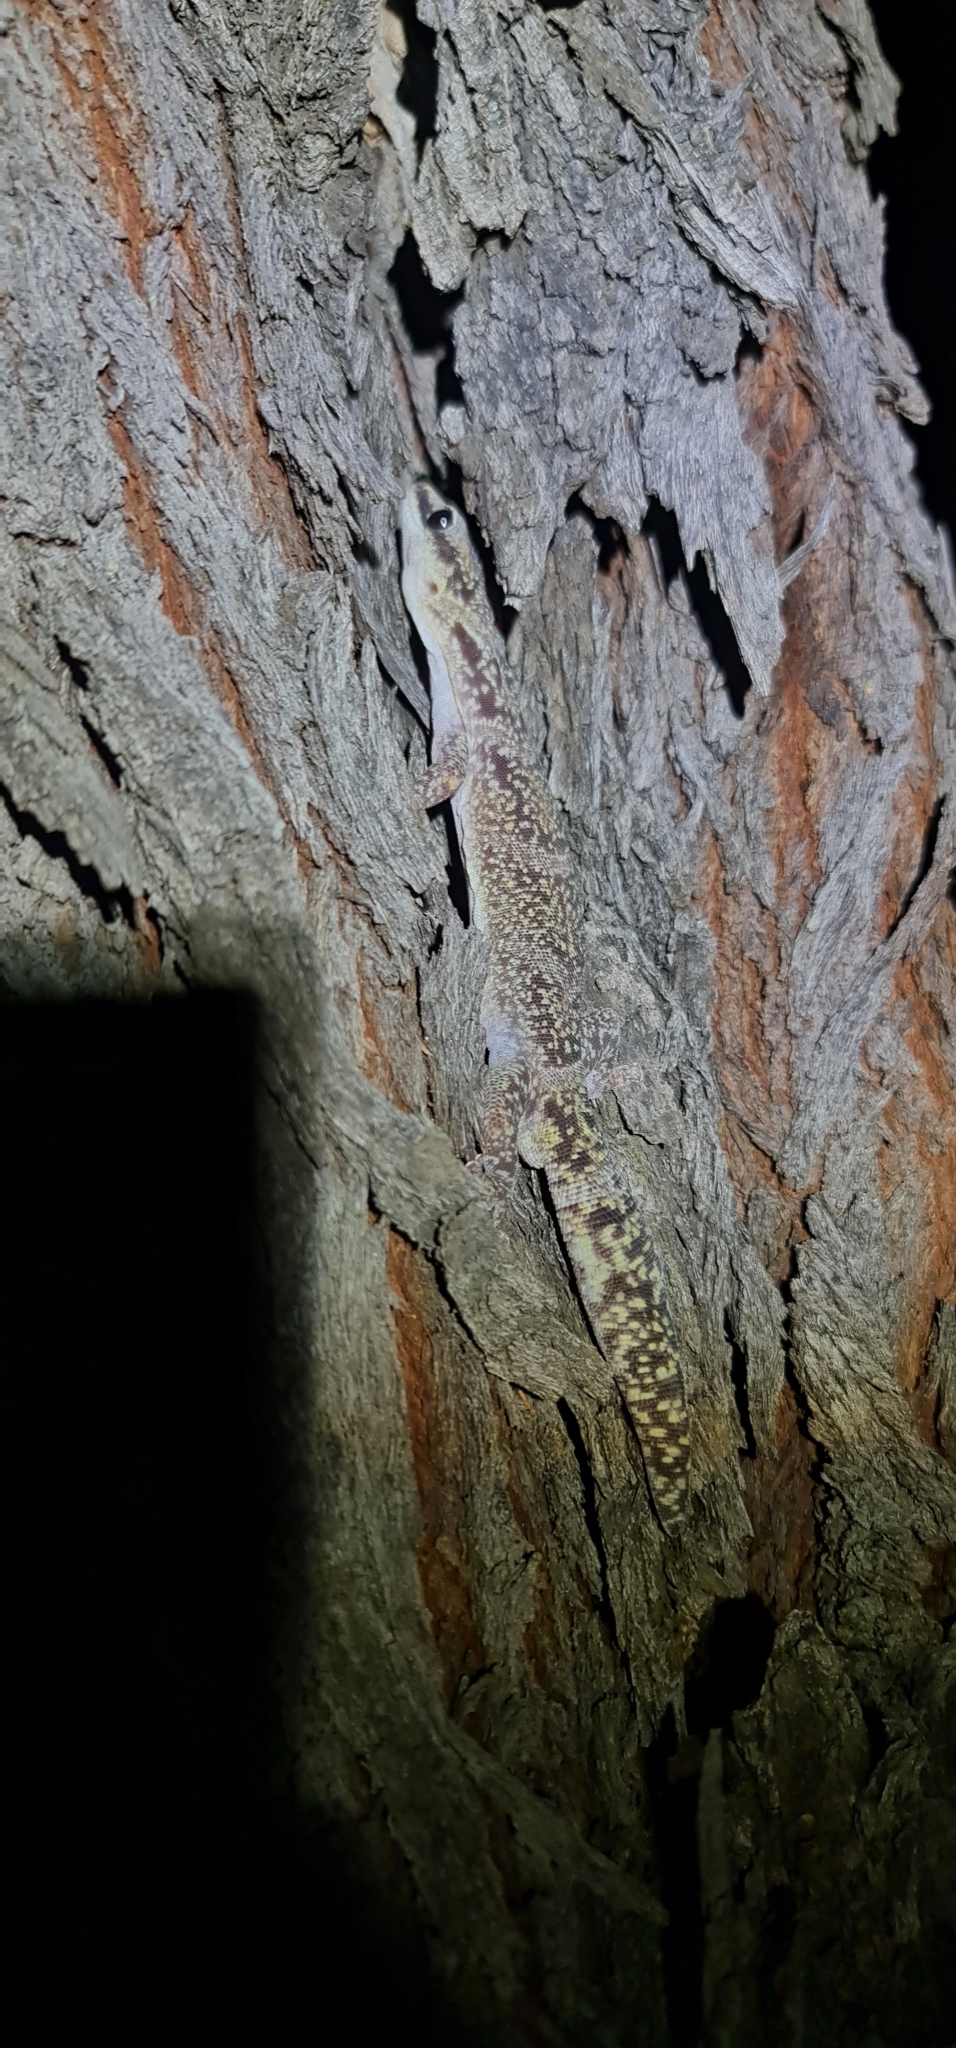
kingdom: Animalia
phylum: Chordata
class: Squamata
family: Diplodactylidae
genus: Oedura
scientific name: Oedura cincta
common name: Inland marbled velvet gecko
